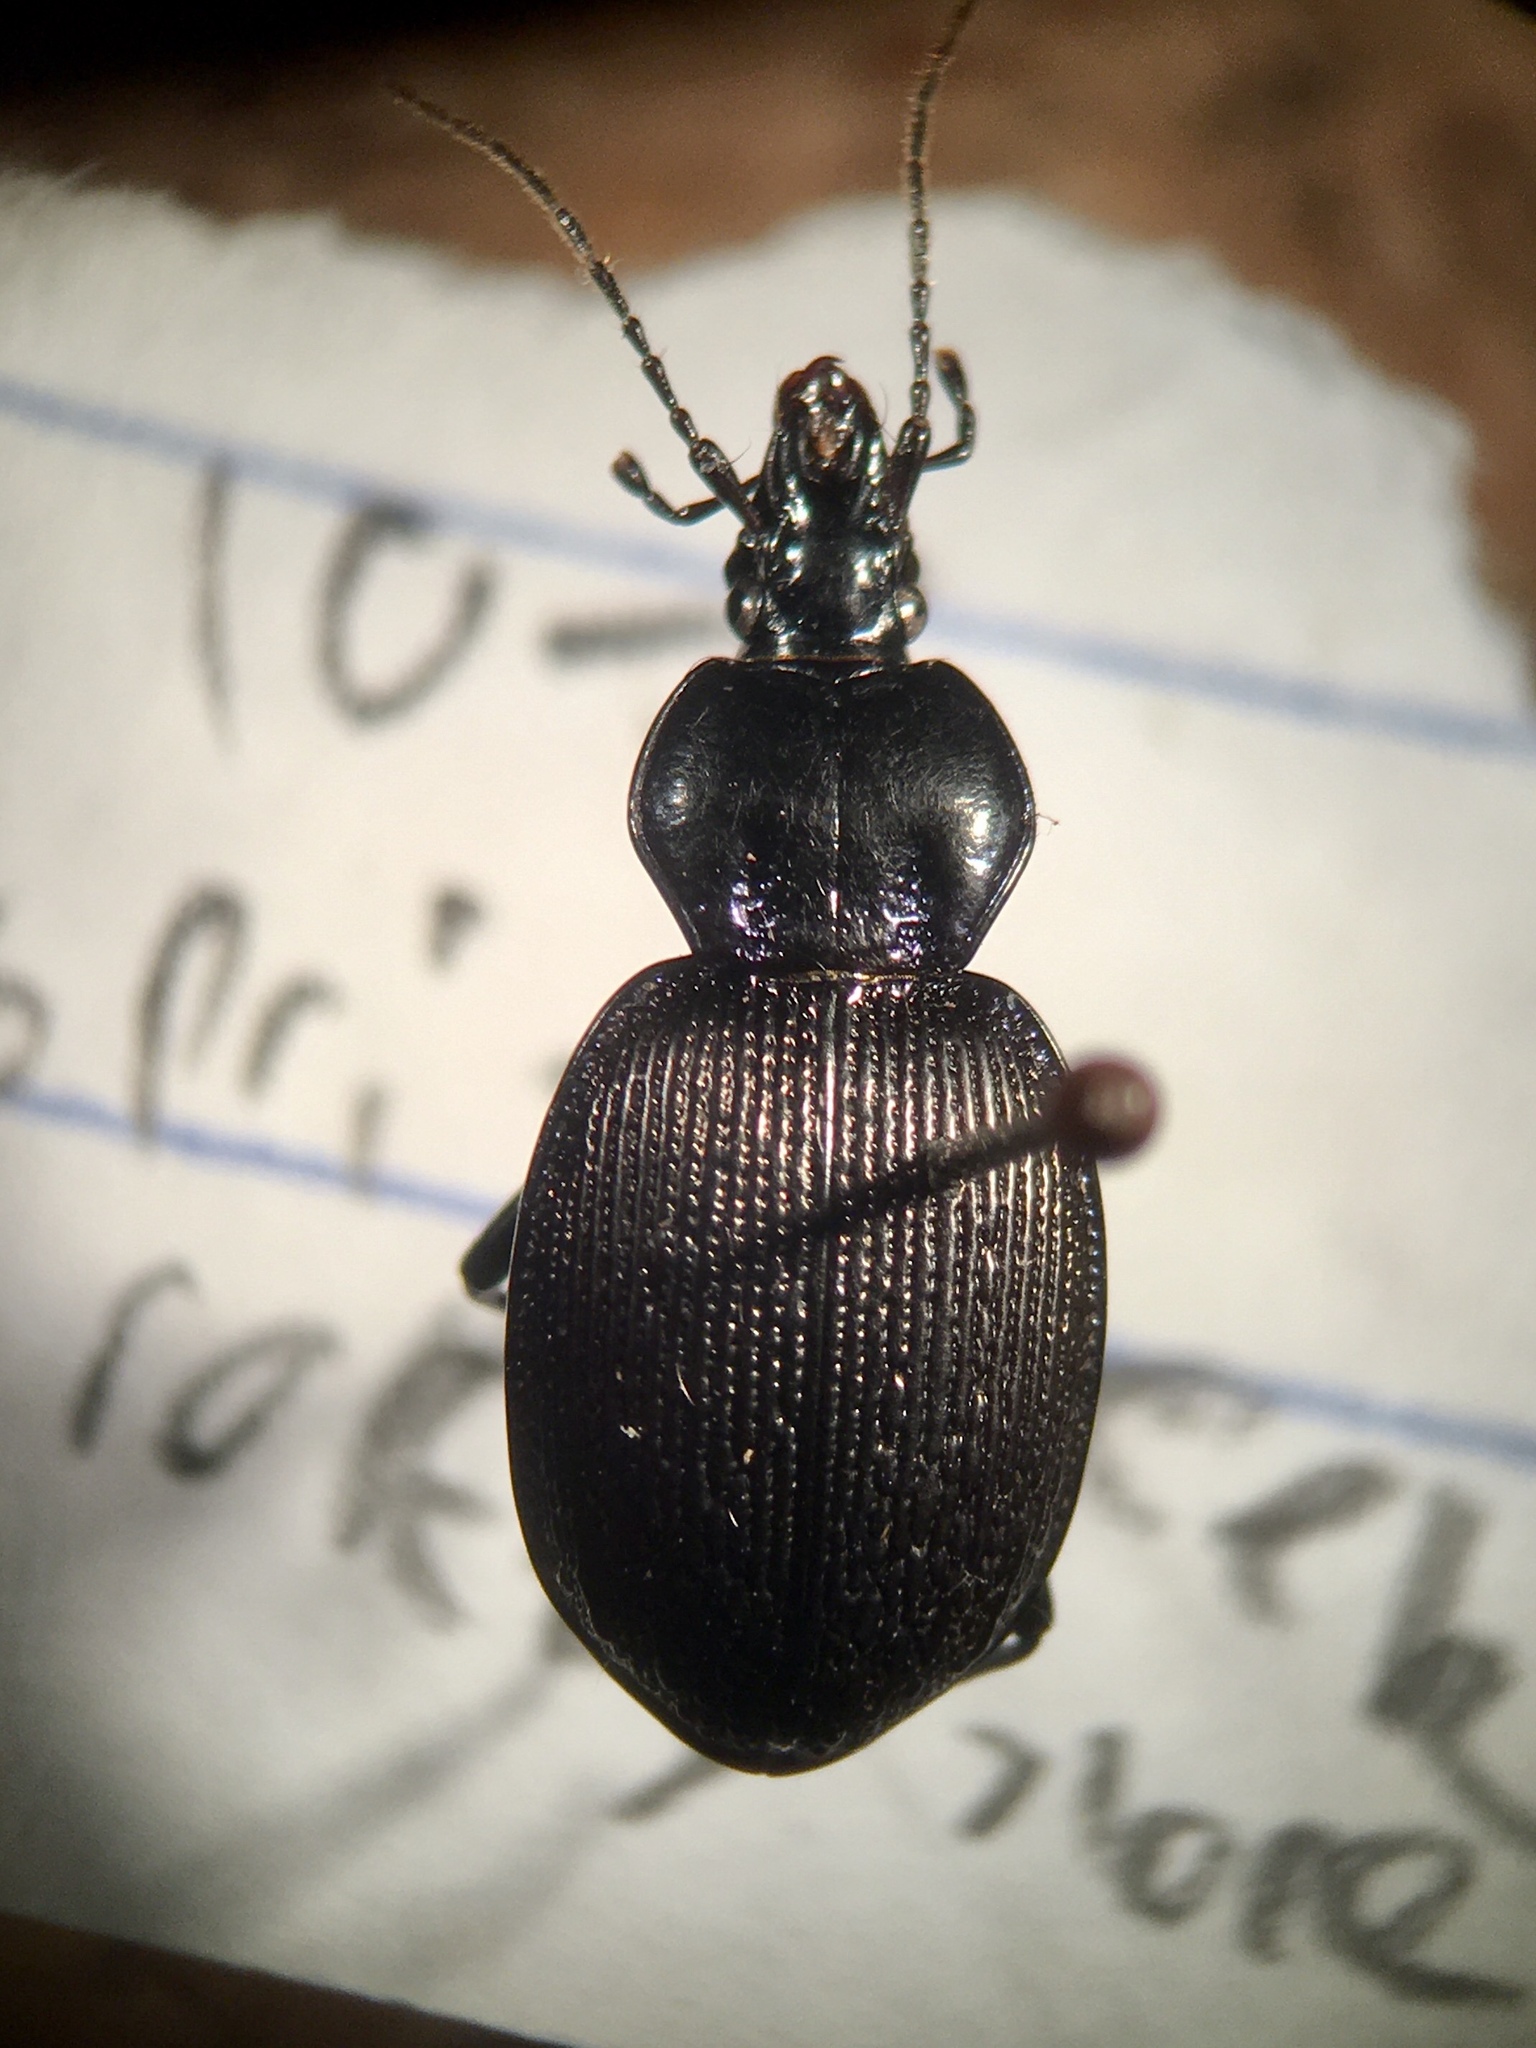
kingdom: Animalia
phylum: Arthropoda
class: Insecta
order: Coleoptera
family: Carabidae
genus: Sphaeroderus
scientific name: Sphaeroderus stenostomus
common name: Small snail-eating ground beetle
